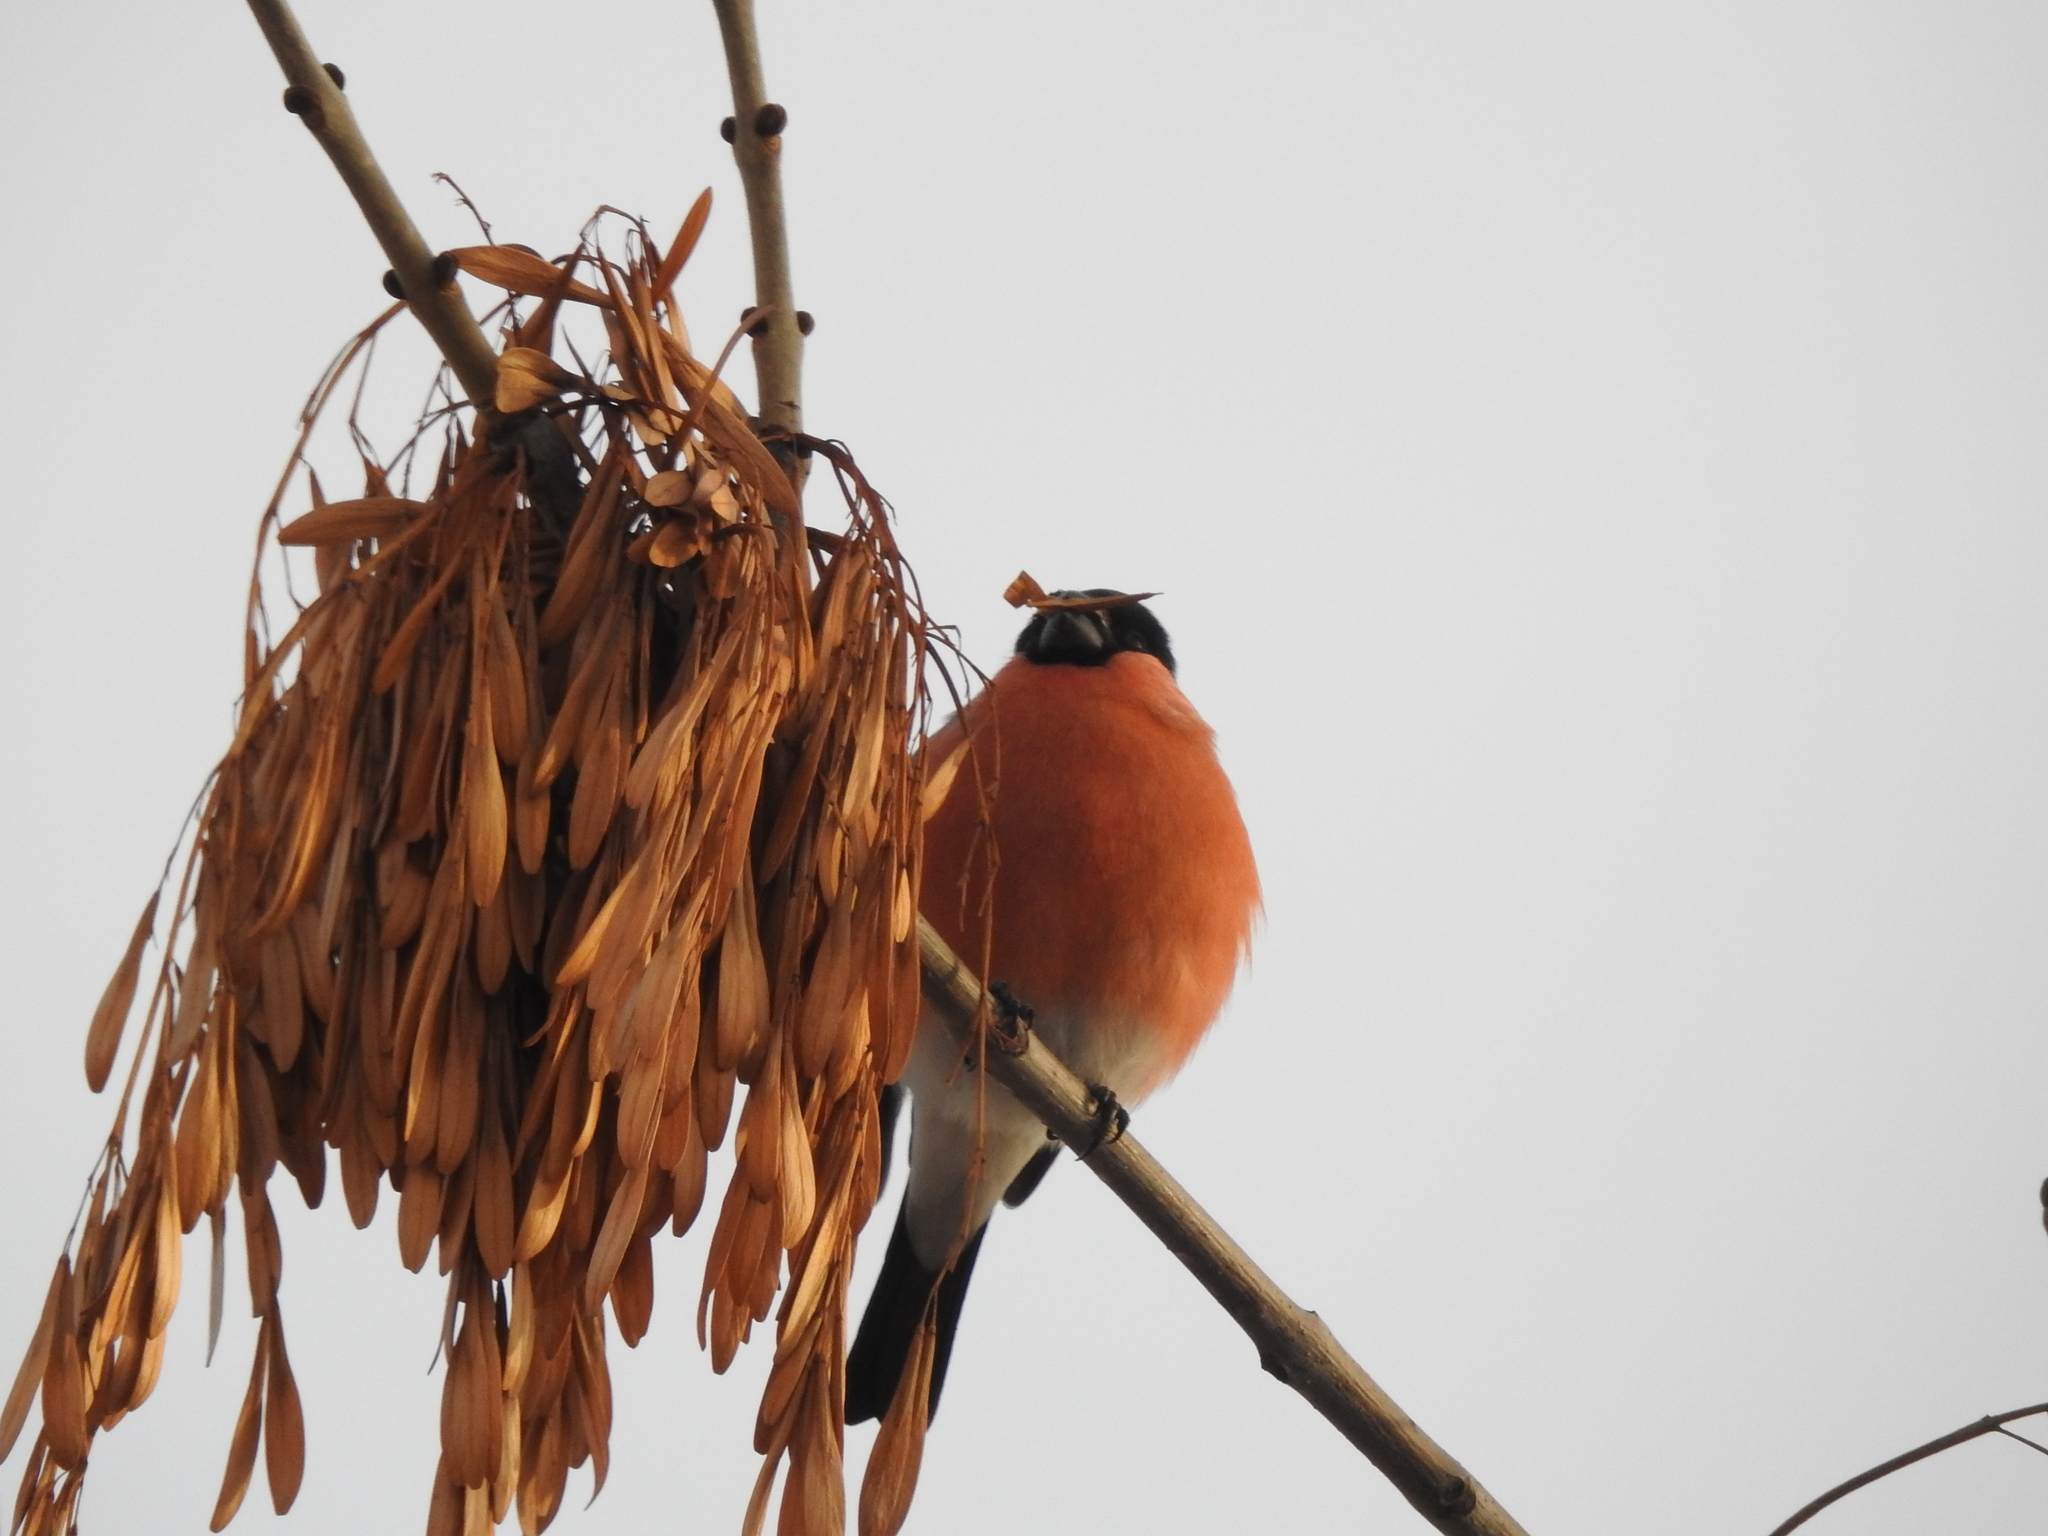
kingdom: Animalia
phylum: Chordata
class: Aves
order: Passeriformes
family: Fringillidae
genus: Pyrrhula
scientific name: Pyrrhula pyrrhula
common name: Eurasian bullfinch
